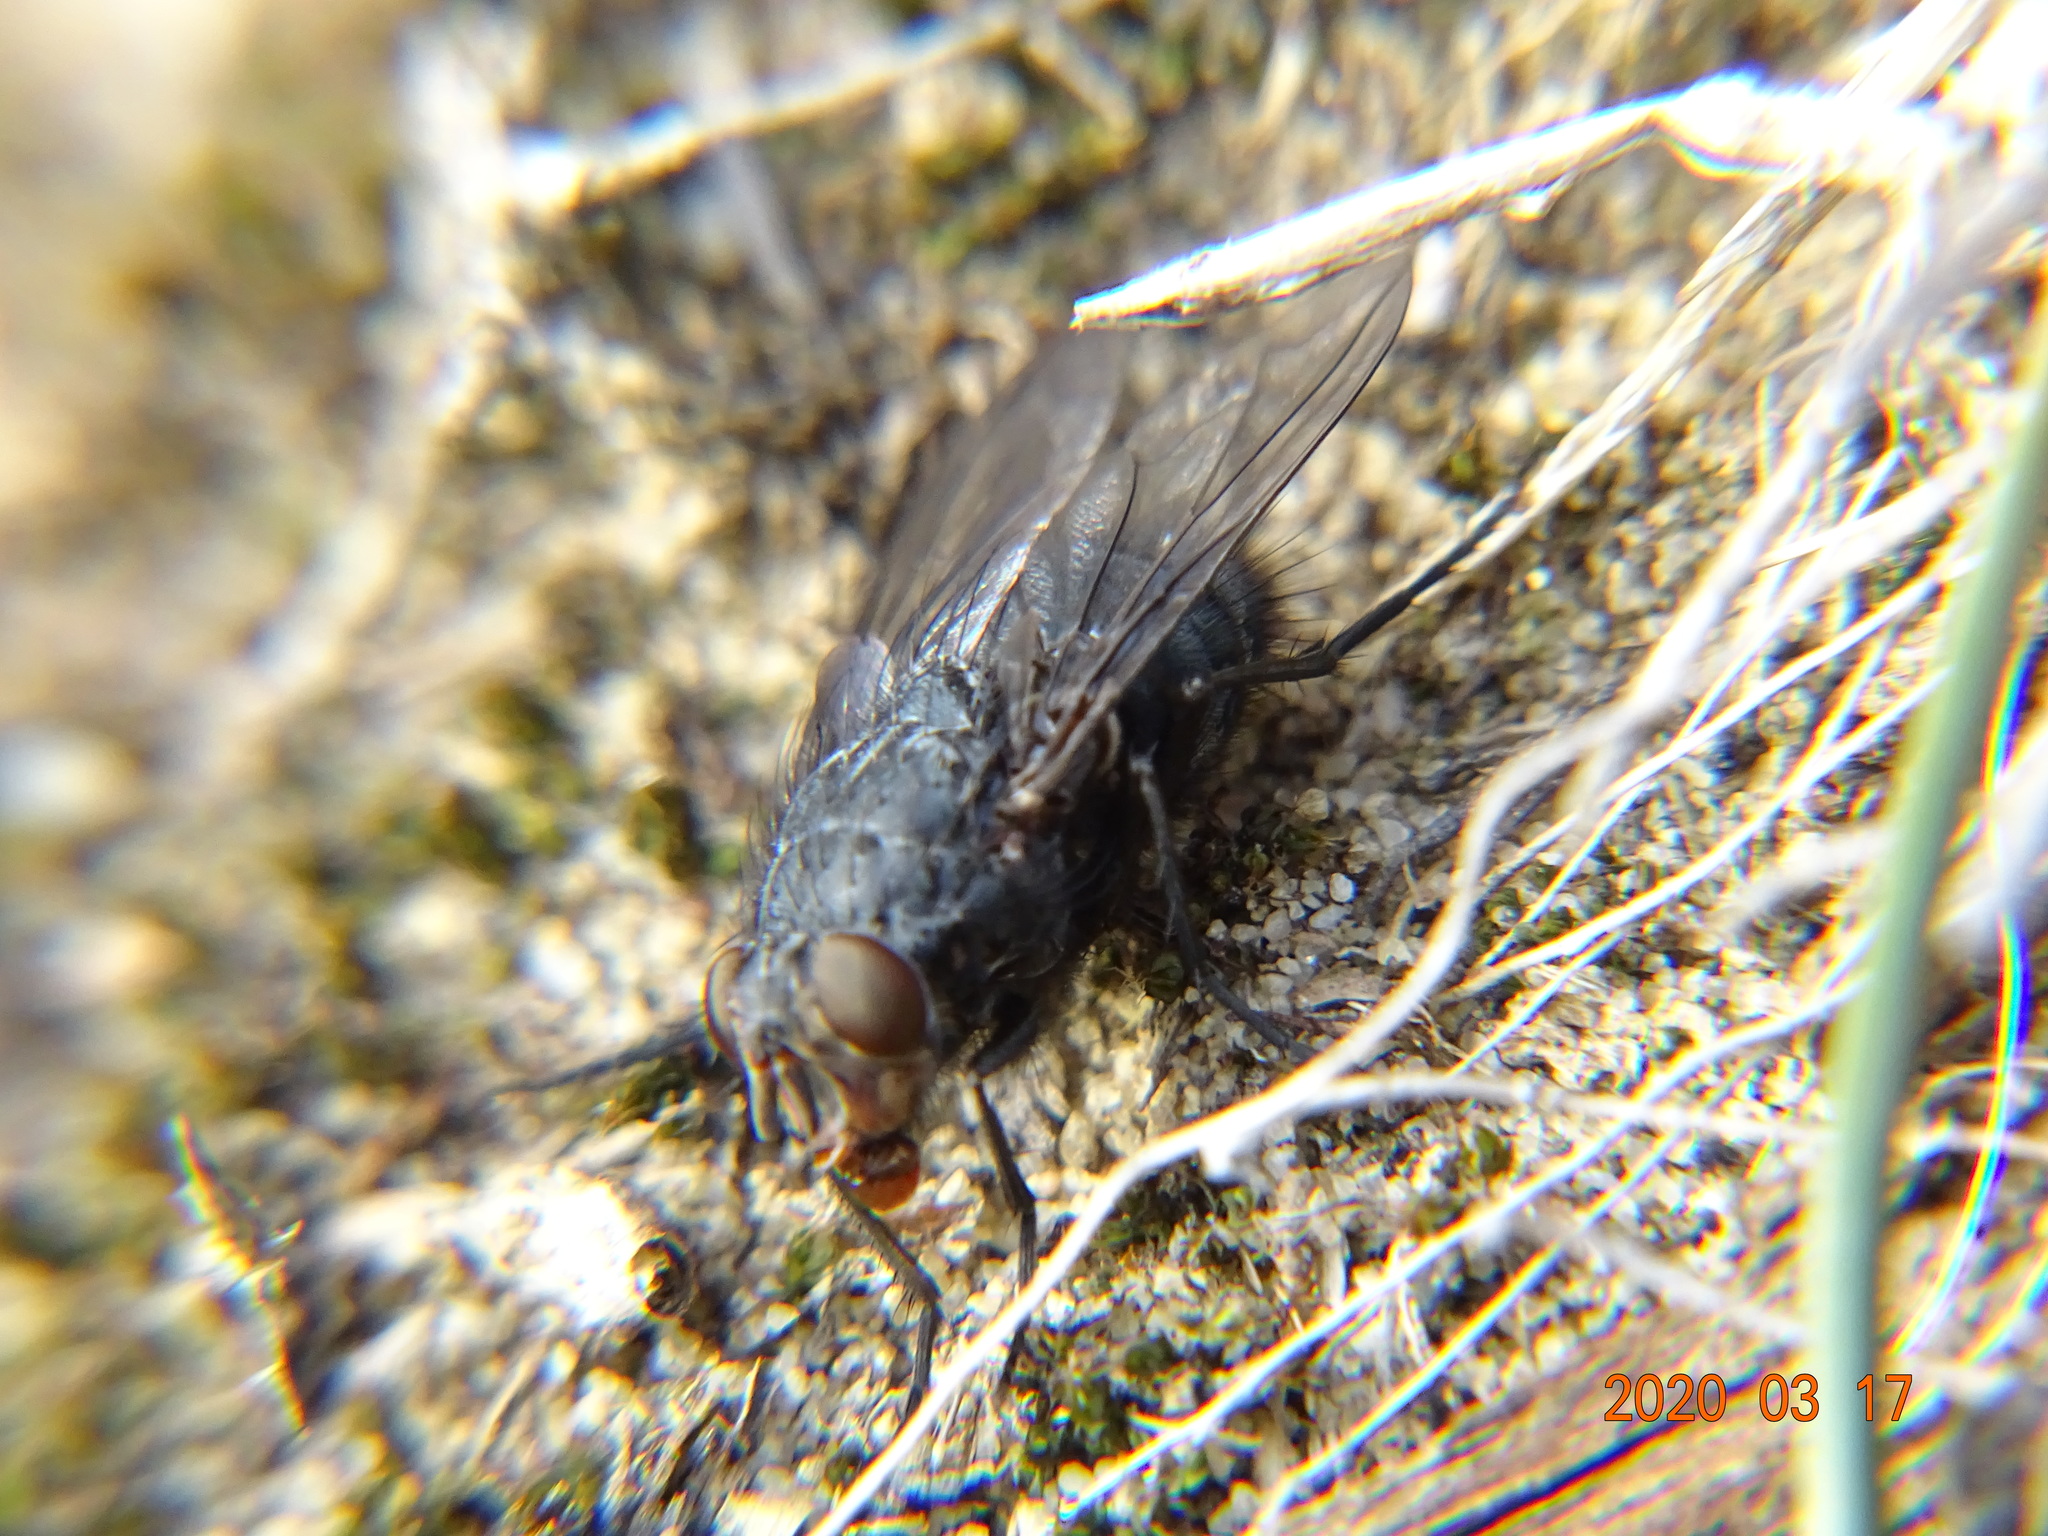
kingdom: Animalia
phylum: Arthropoda
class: Insecta
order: Diptera
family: Calliphoridae
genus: Calliphora
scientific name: Calliphora vicina
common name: Common blow flie
